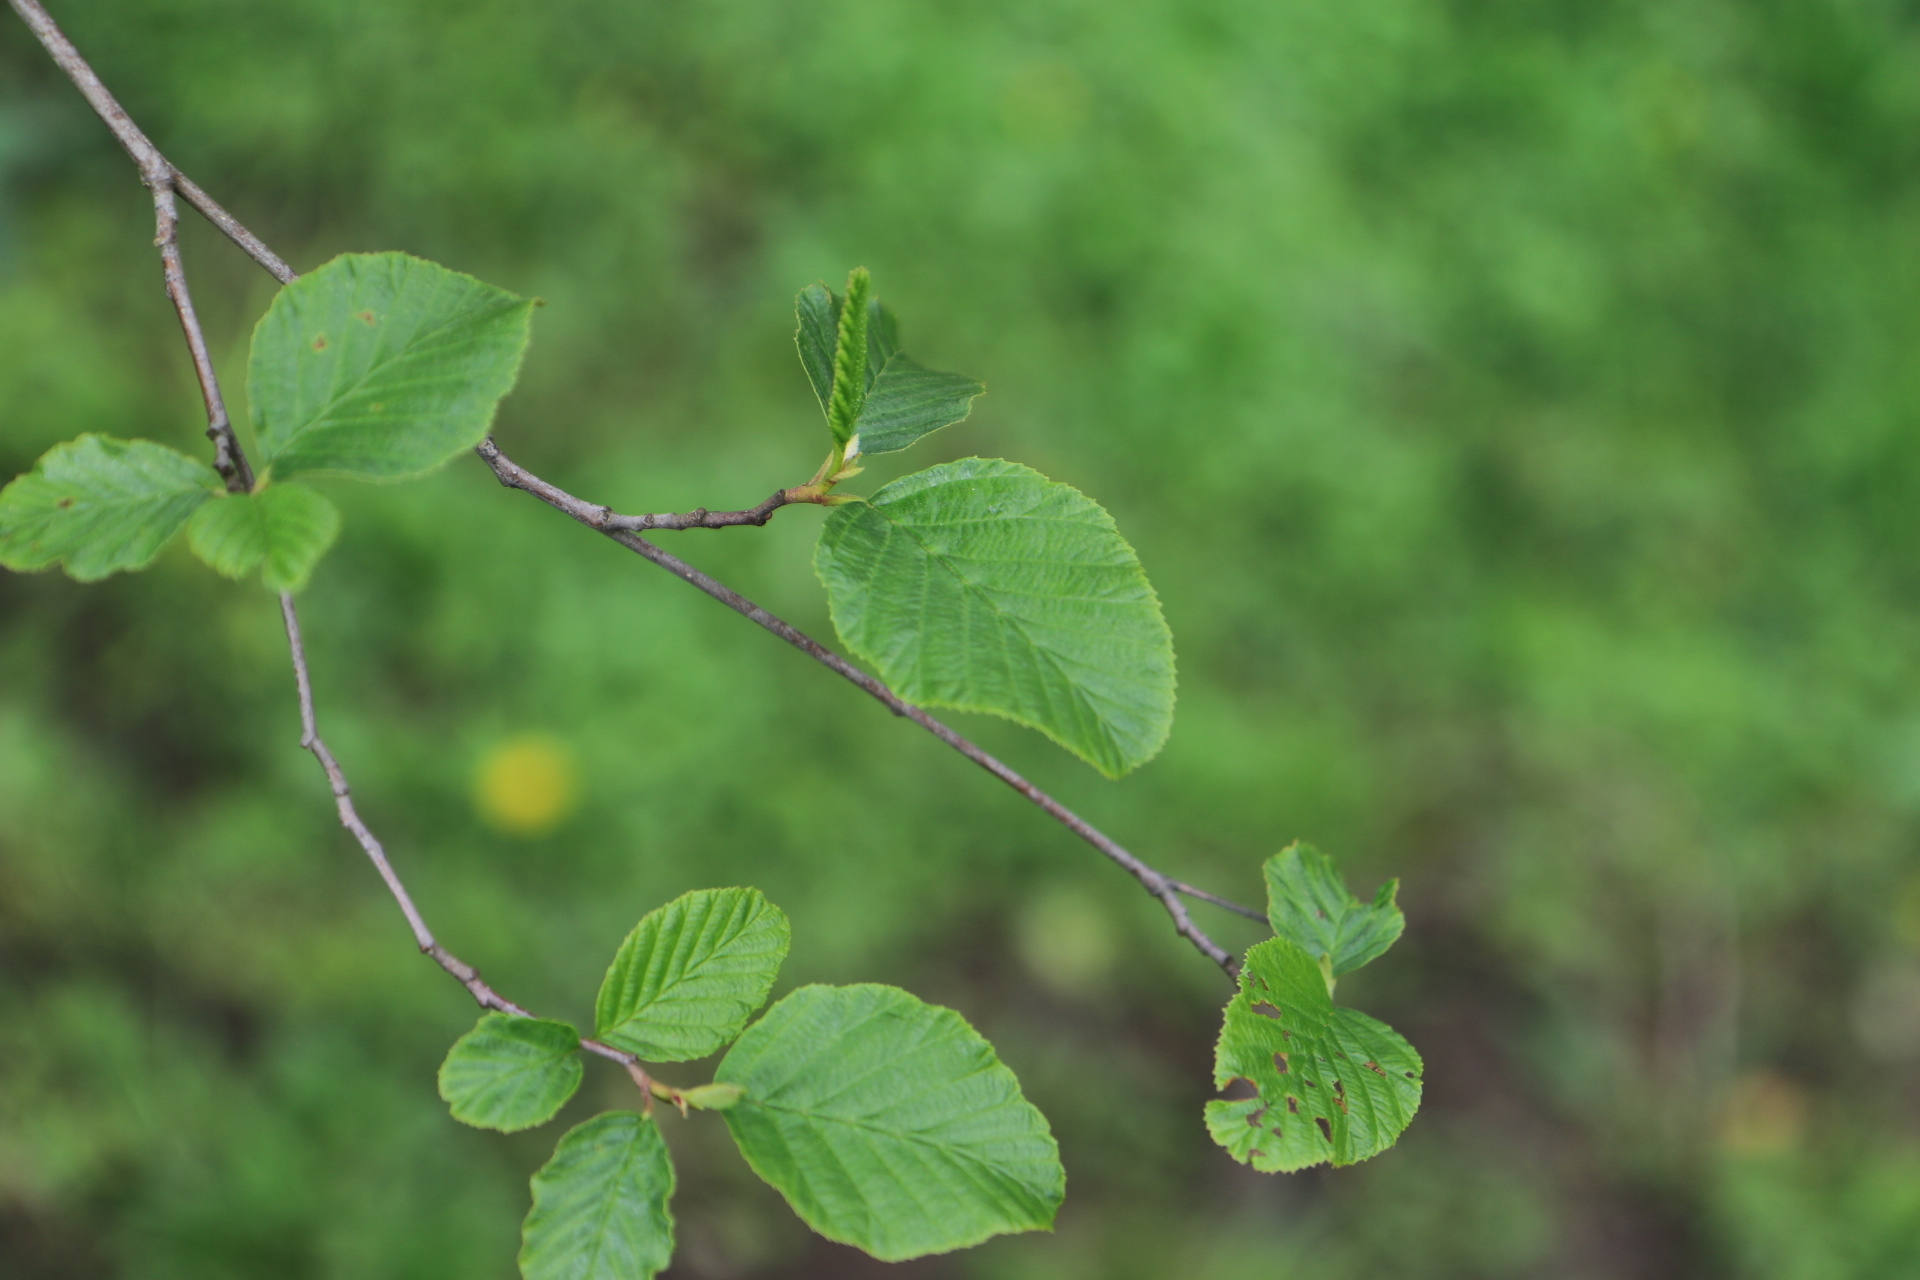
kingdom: Plantae
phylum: Tracheophyta
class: Magnoliopsida
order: Fagales
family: Betulaceae
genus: Alnus
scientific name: Alnus rhombifolia
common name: California alder
